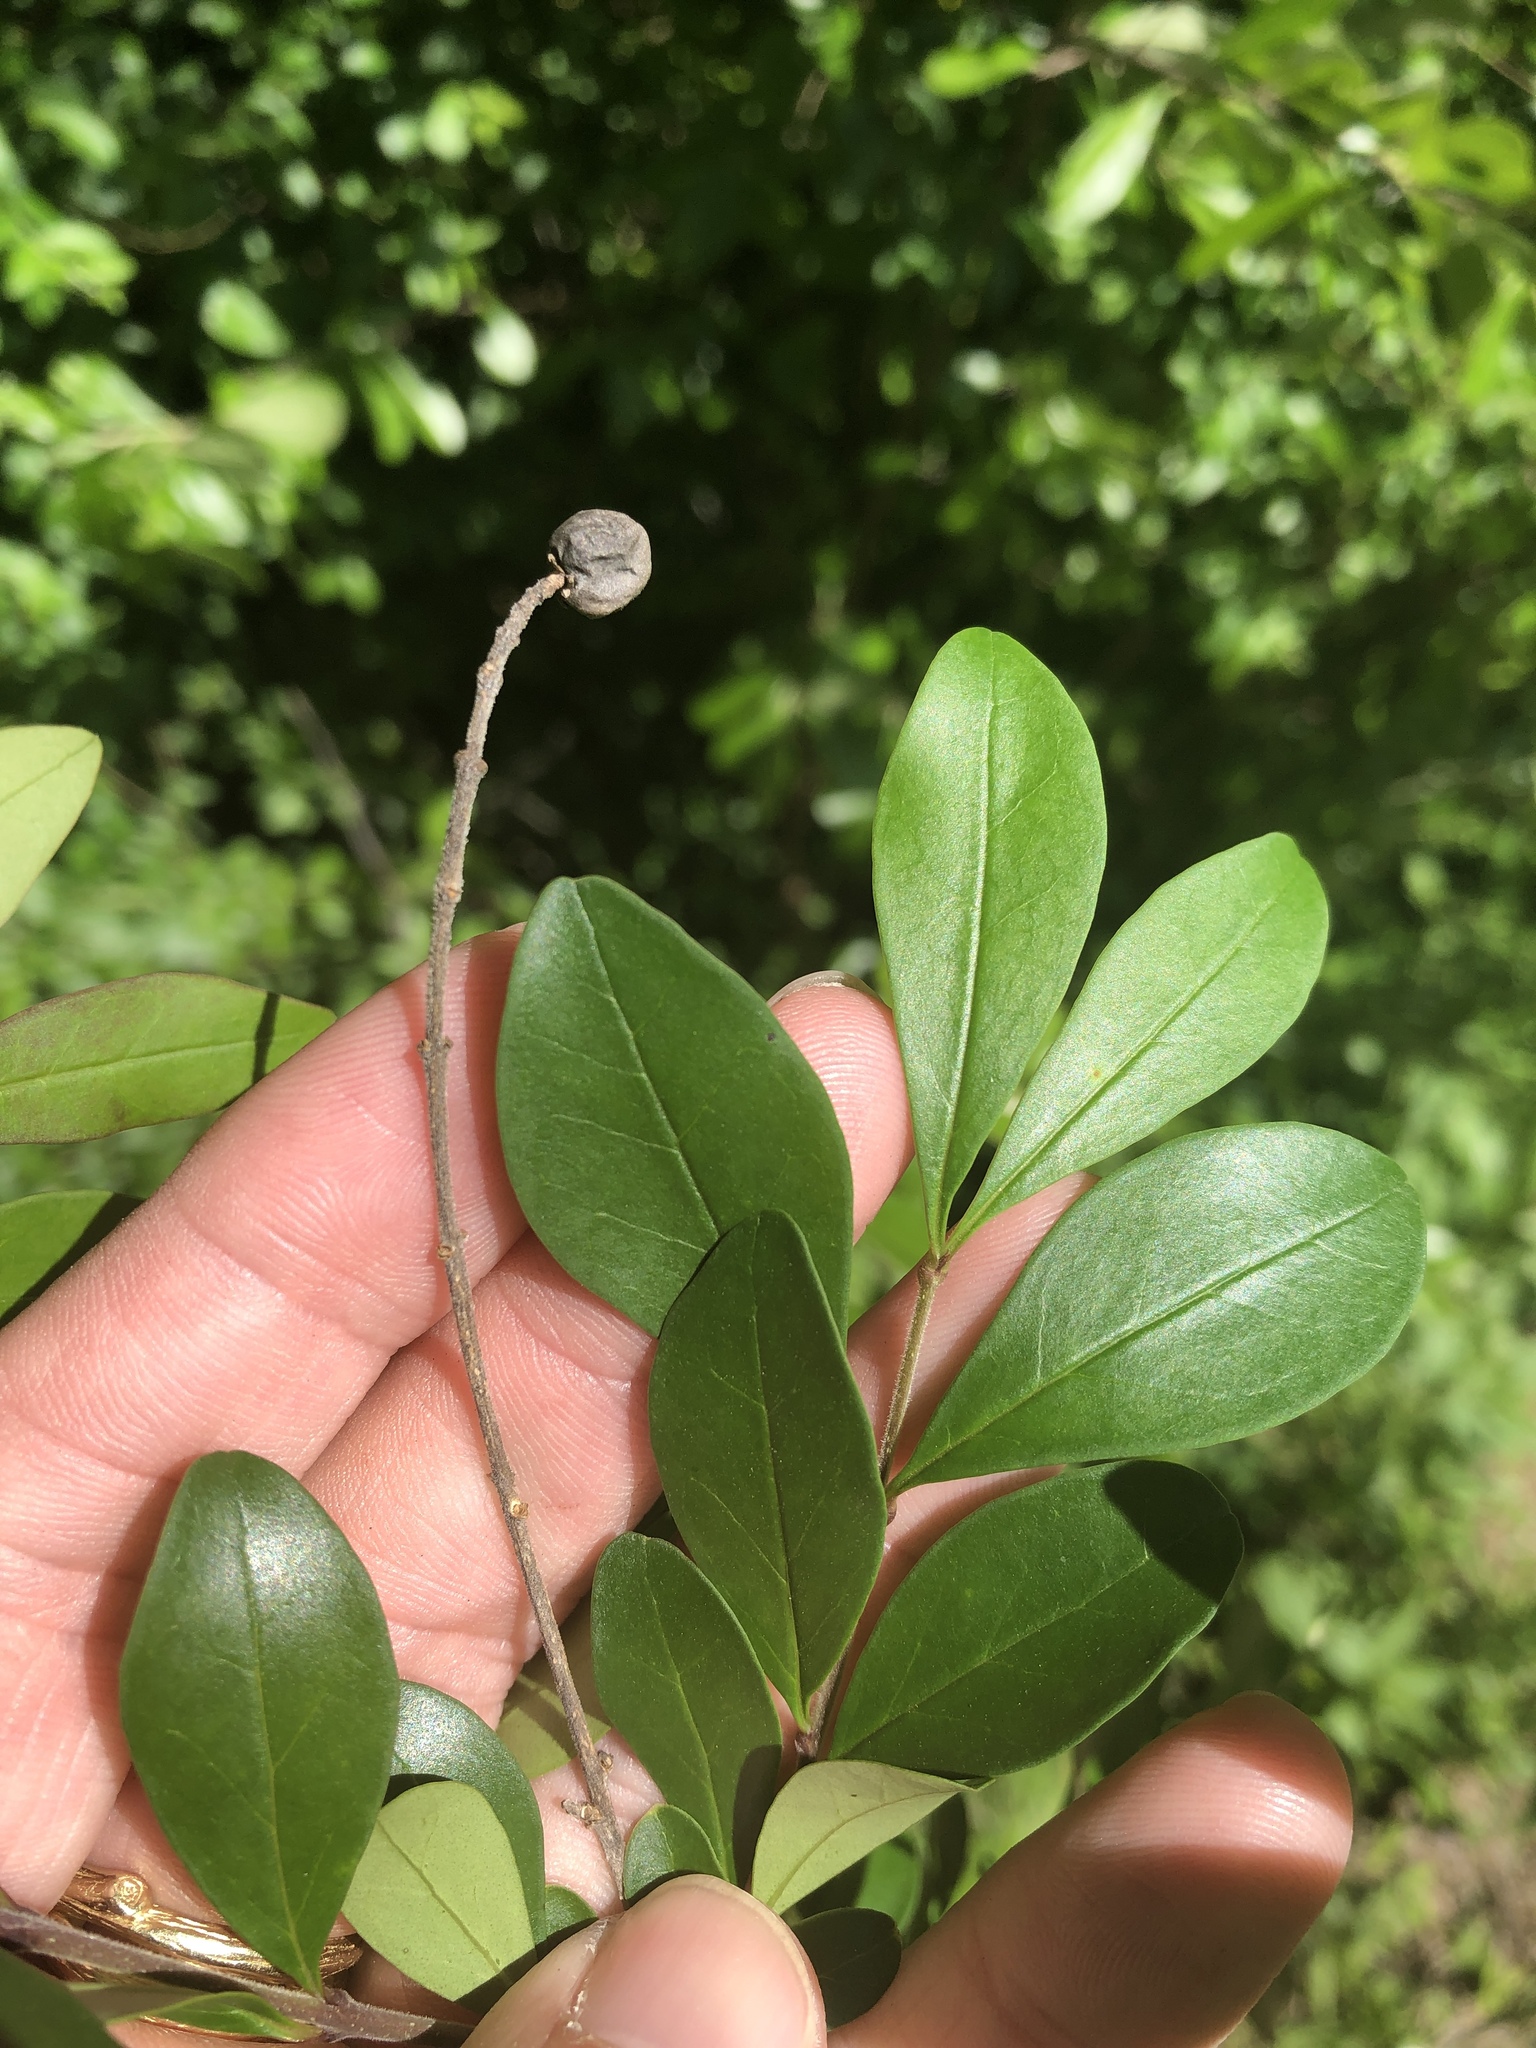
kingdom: Plantae
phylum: Tracheophyta
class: Magnoliopsida
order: Lamiales
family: Oleaceae
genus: Ligustrum
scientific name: Ligustrum quihoui
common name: Waxyleaf privet
